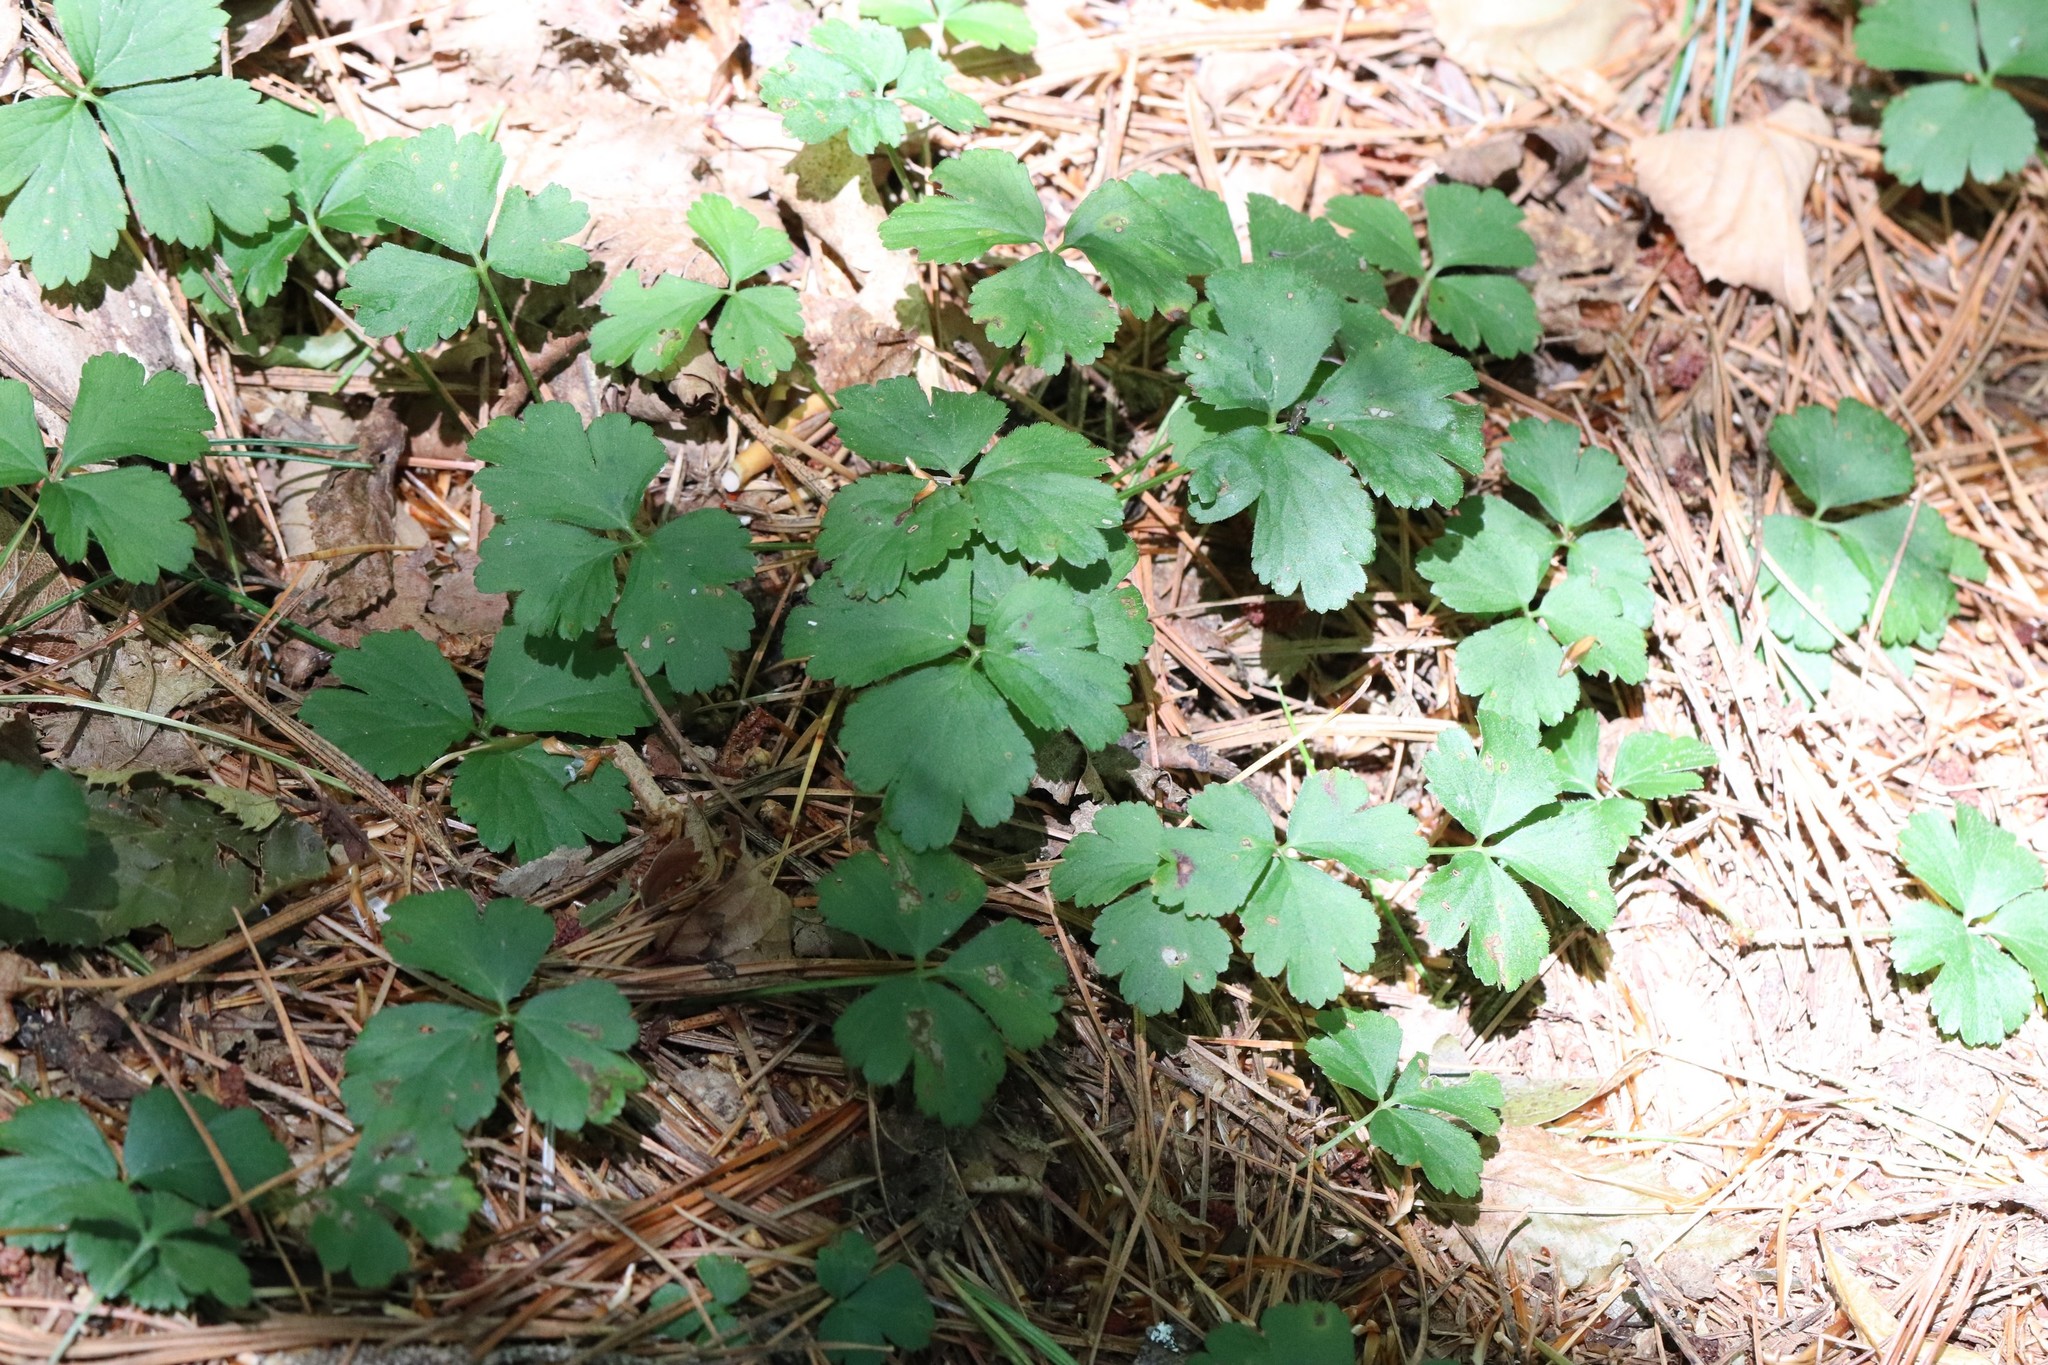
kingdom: Plantae
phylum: Tracheophyta
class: Magnoliopsida
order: Rosales
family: Rosaceae
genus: Geum
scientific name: Geum ternatum
